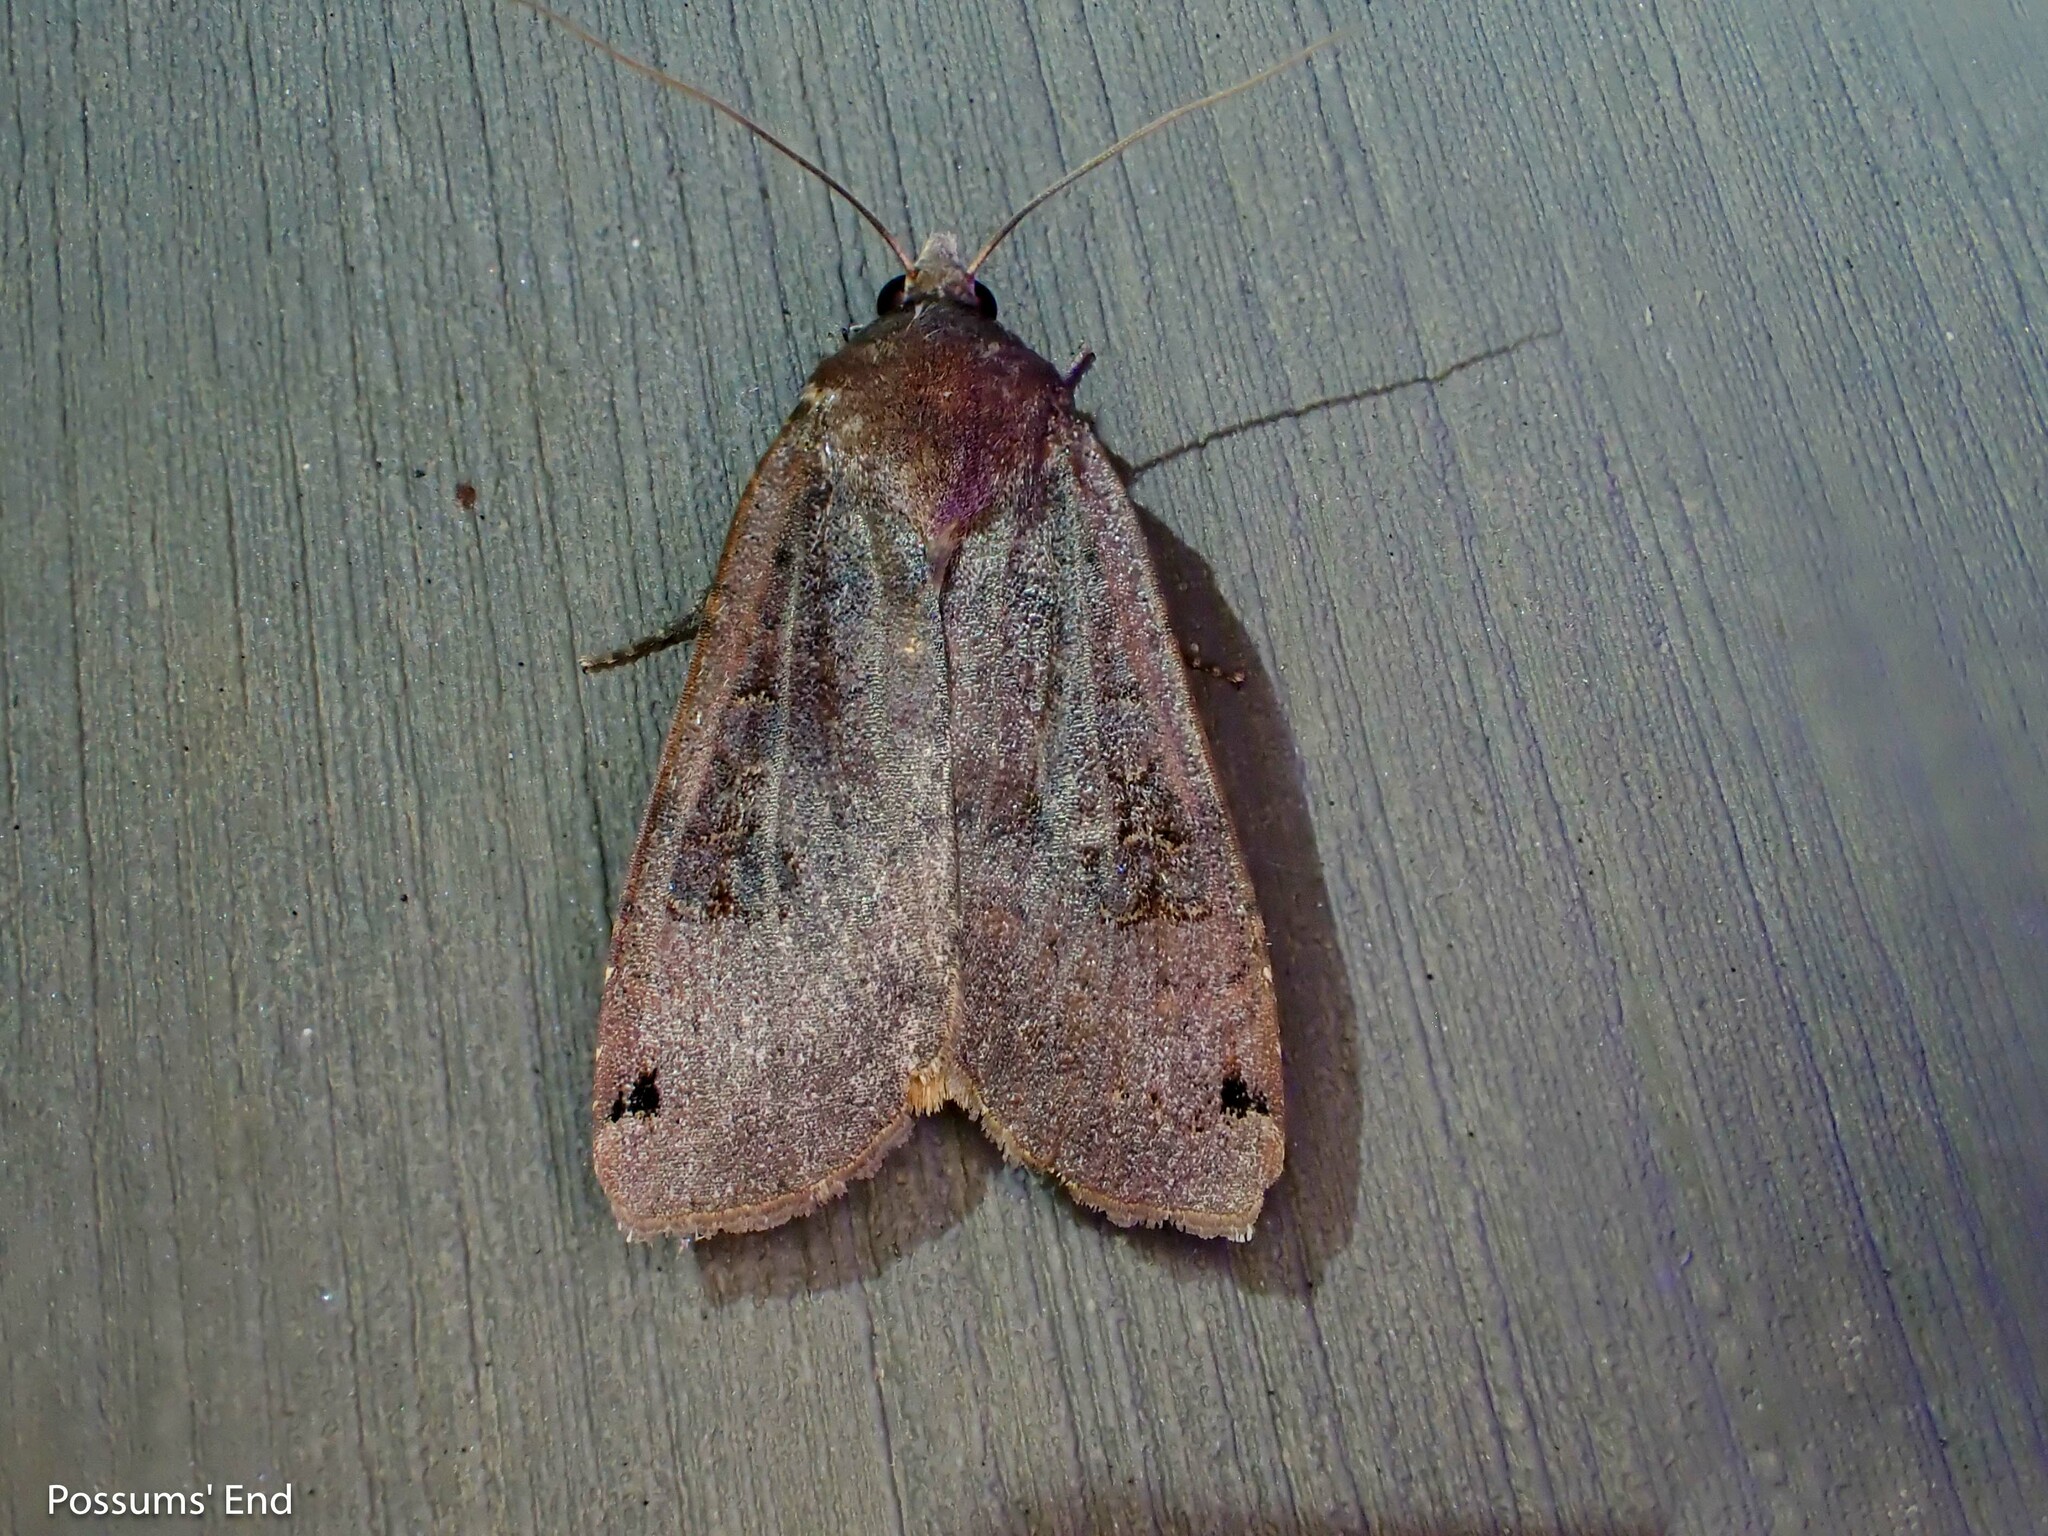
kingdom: Animalia
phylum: Arthropoda
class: Insecta
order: Lepidoptera
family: Noctuidae
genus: Noctua
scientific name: Noctua pronuba
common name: Large yellow underwing
